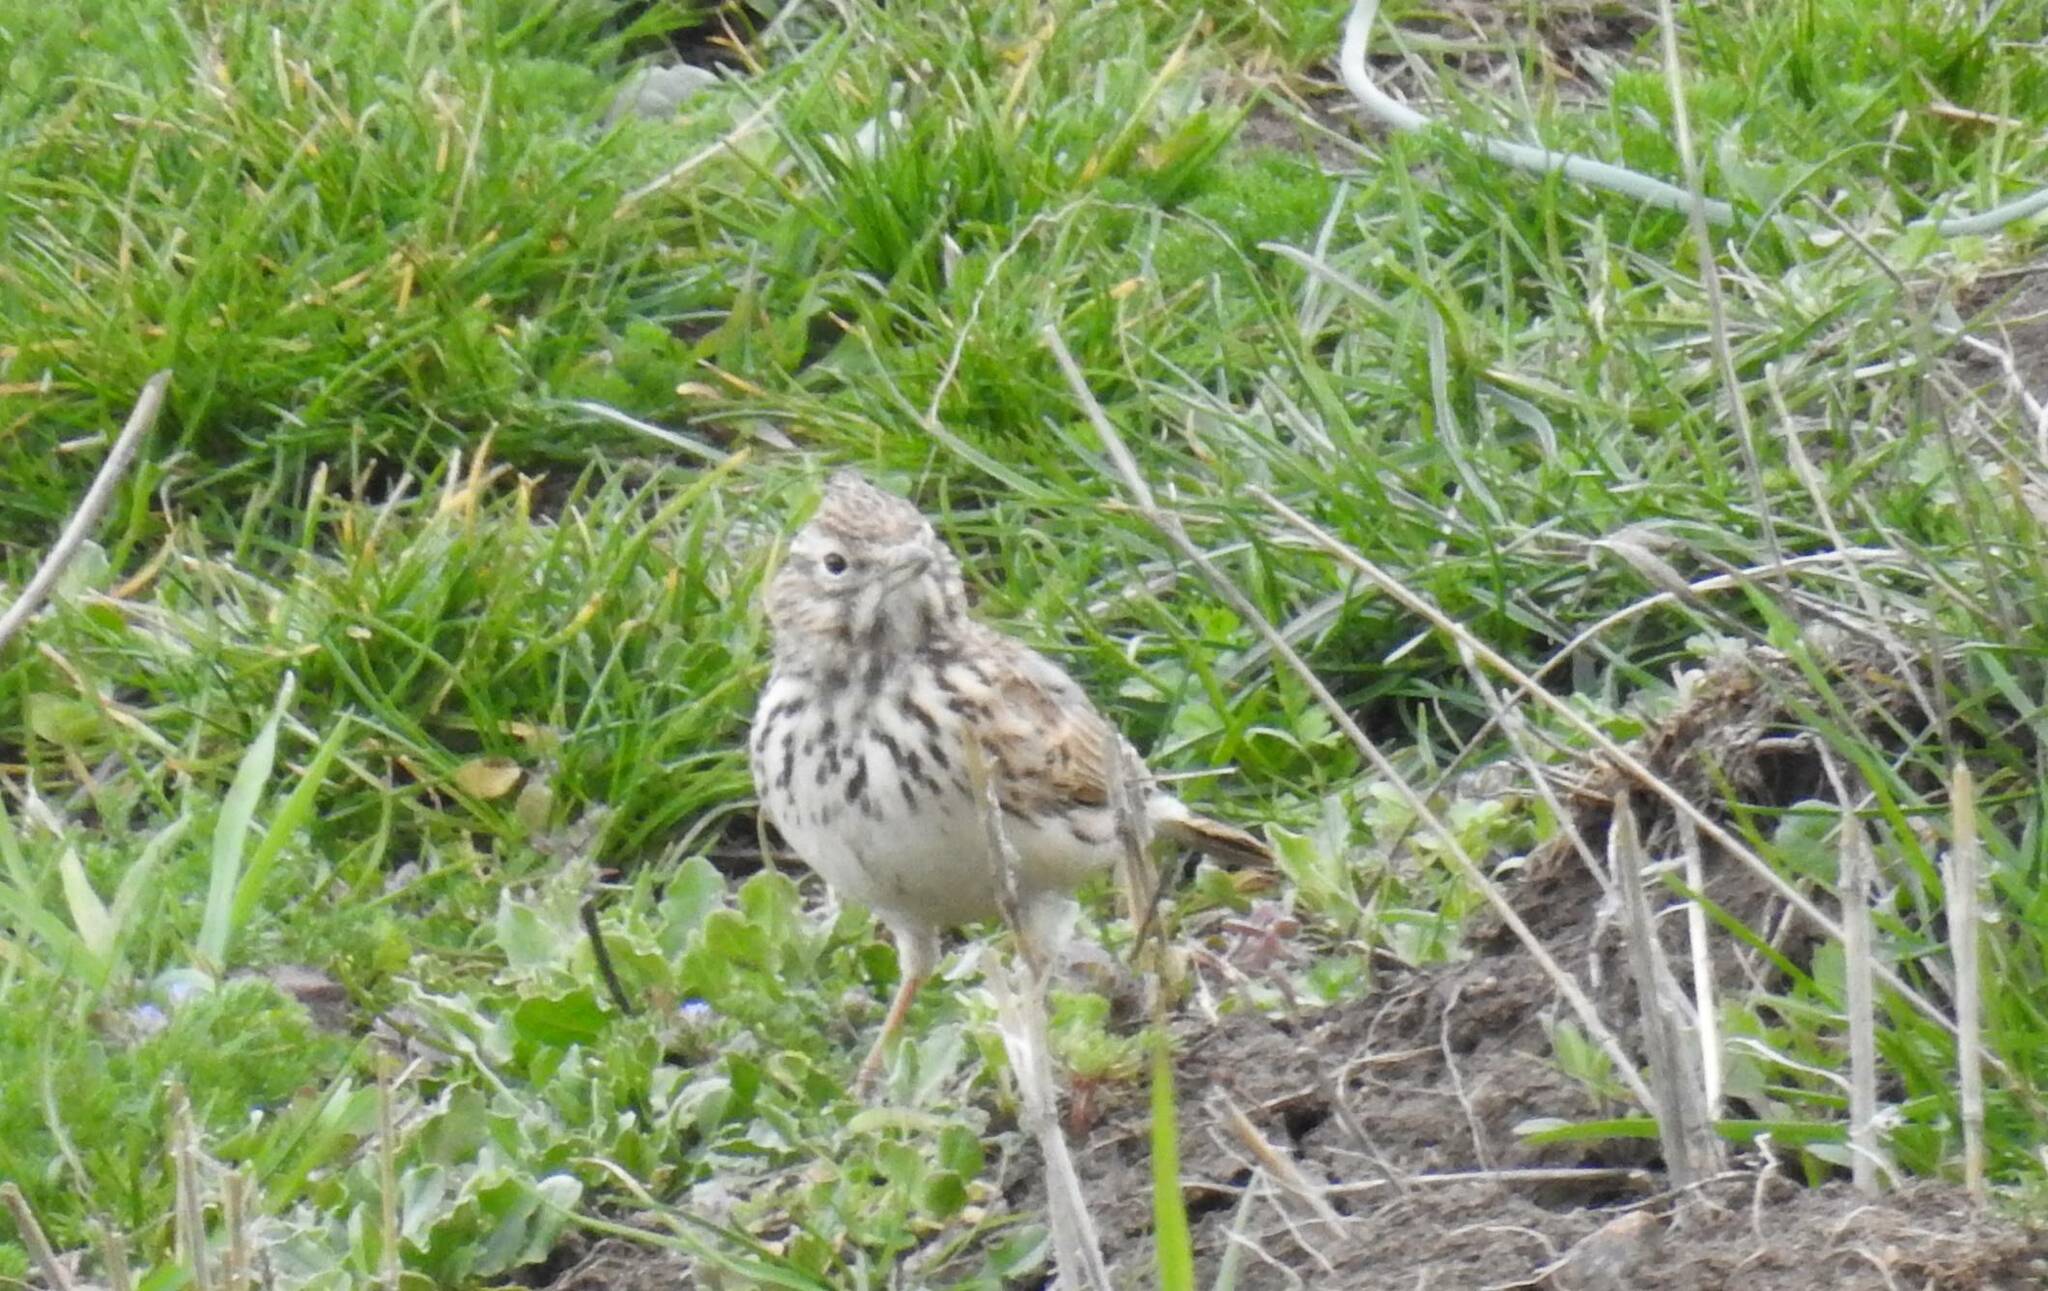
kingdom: Animalia
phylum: Chordata
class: Aves
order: Passeriformes
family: Alaudidae
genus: Galerida
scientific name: Galerida theklae
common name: Thekla lark
